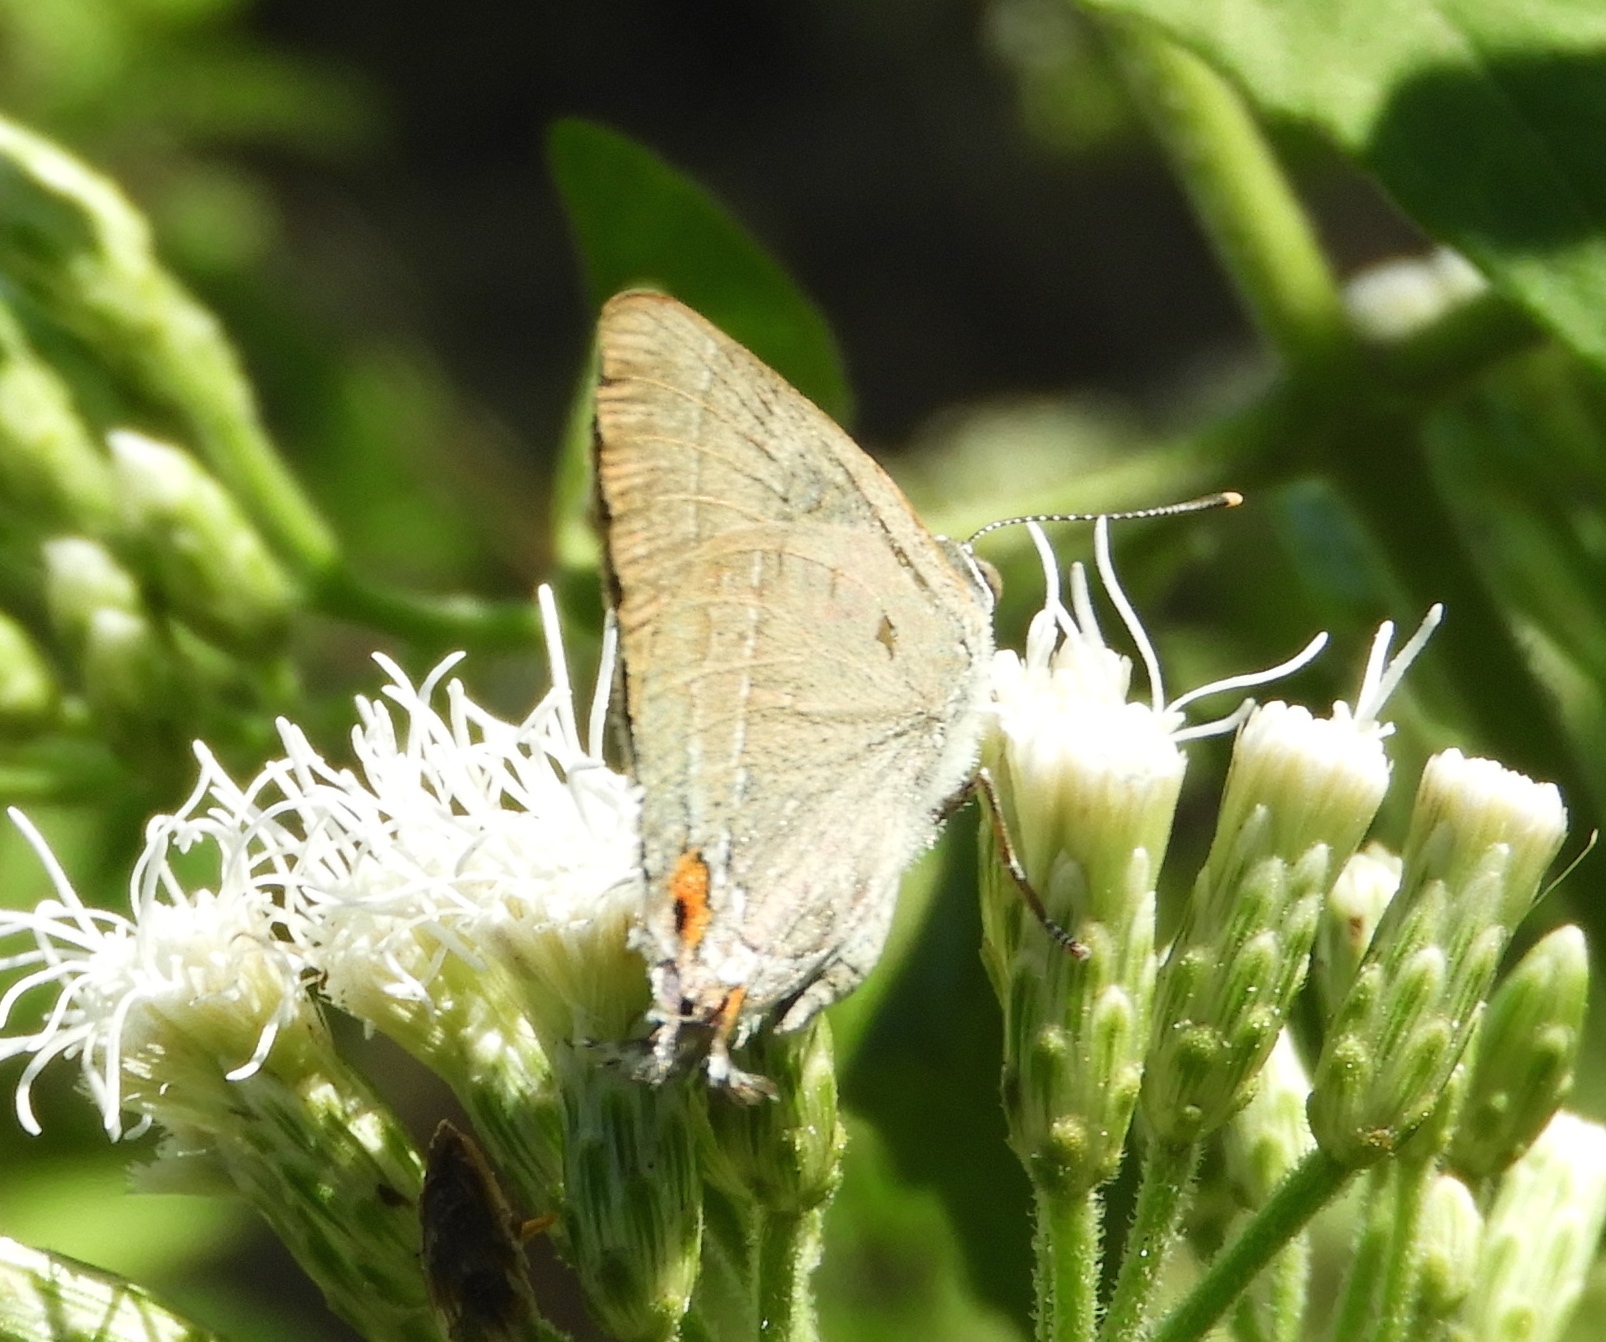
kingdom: Animalia
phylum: Arthropoda
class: Insecta
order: Lepidoptera
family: Lycaenidae
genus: Thecla
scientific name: Thecla marius
